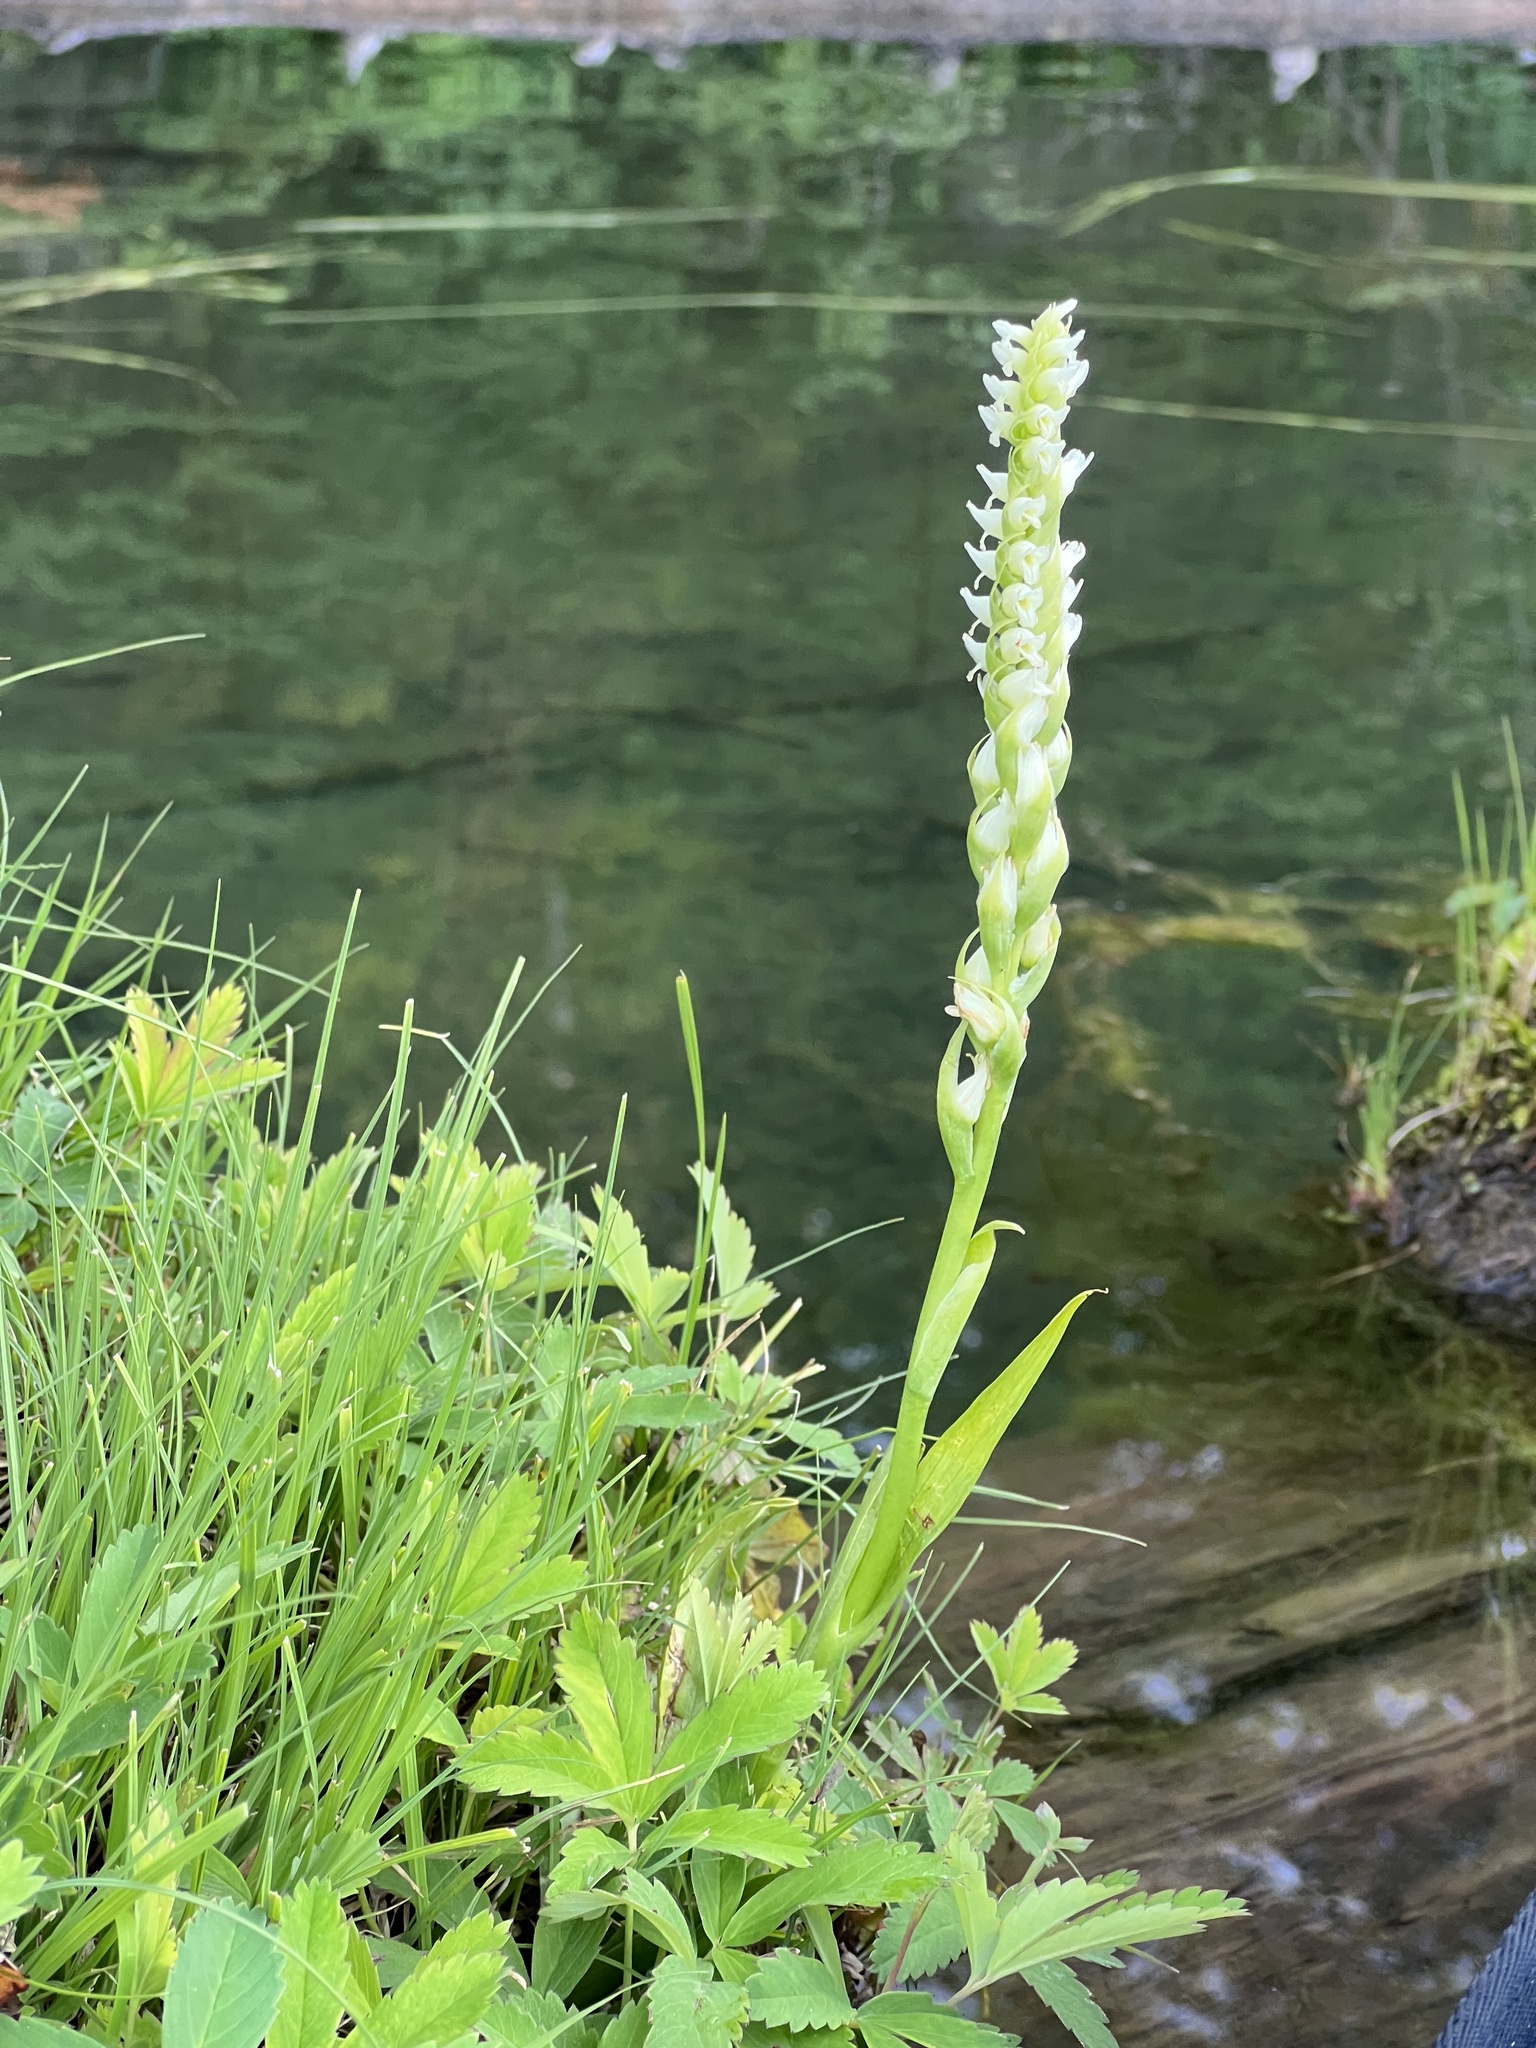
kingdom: Plantae
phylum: Tracheophyta
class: Liliopsida
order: Asparagales
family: Orchidaceae
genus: Spiranthes
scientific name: Spiranthes romanzoffiana
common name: Irish lady's-tresses
